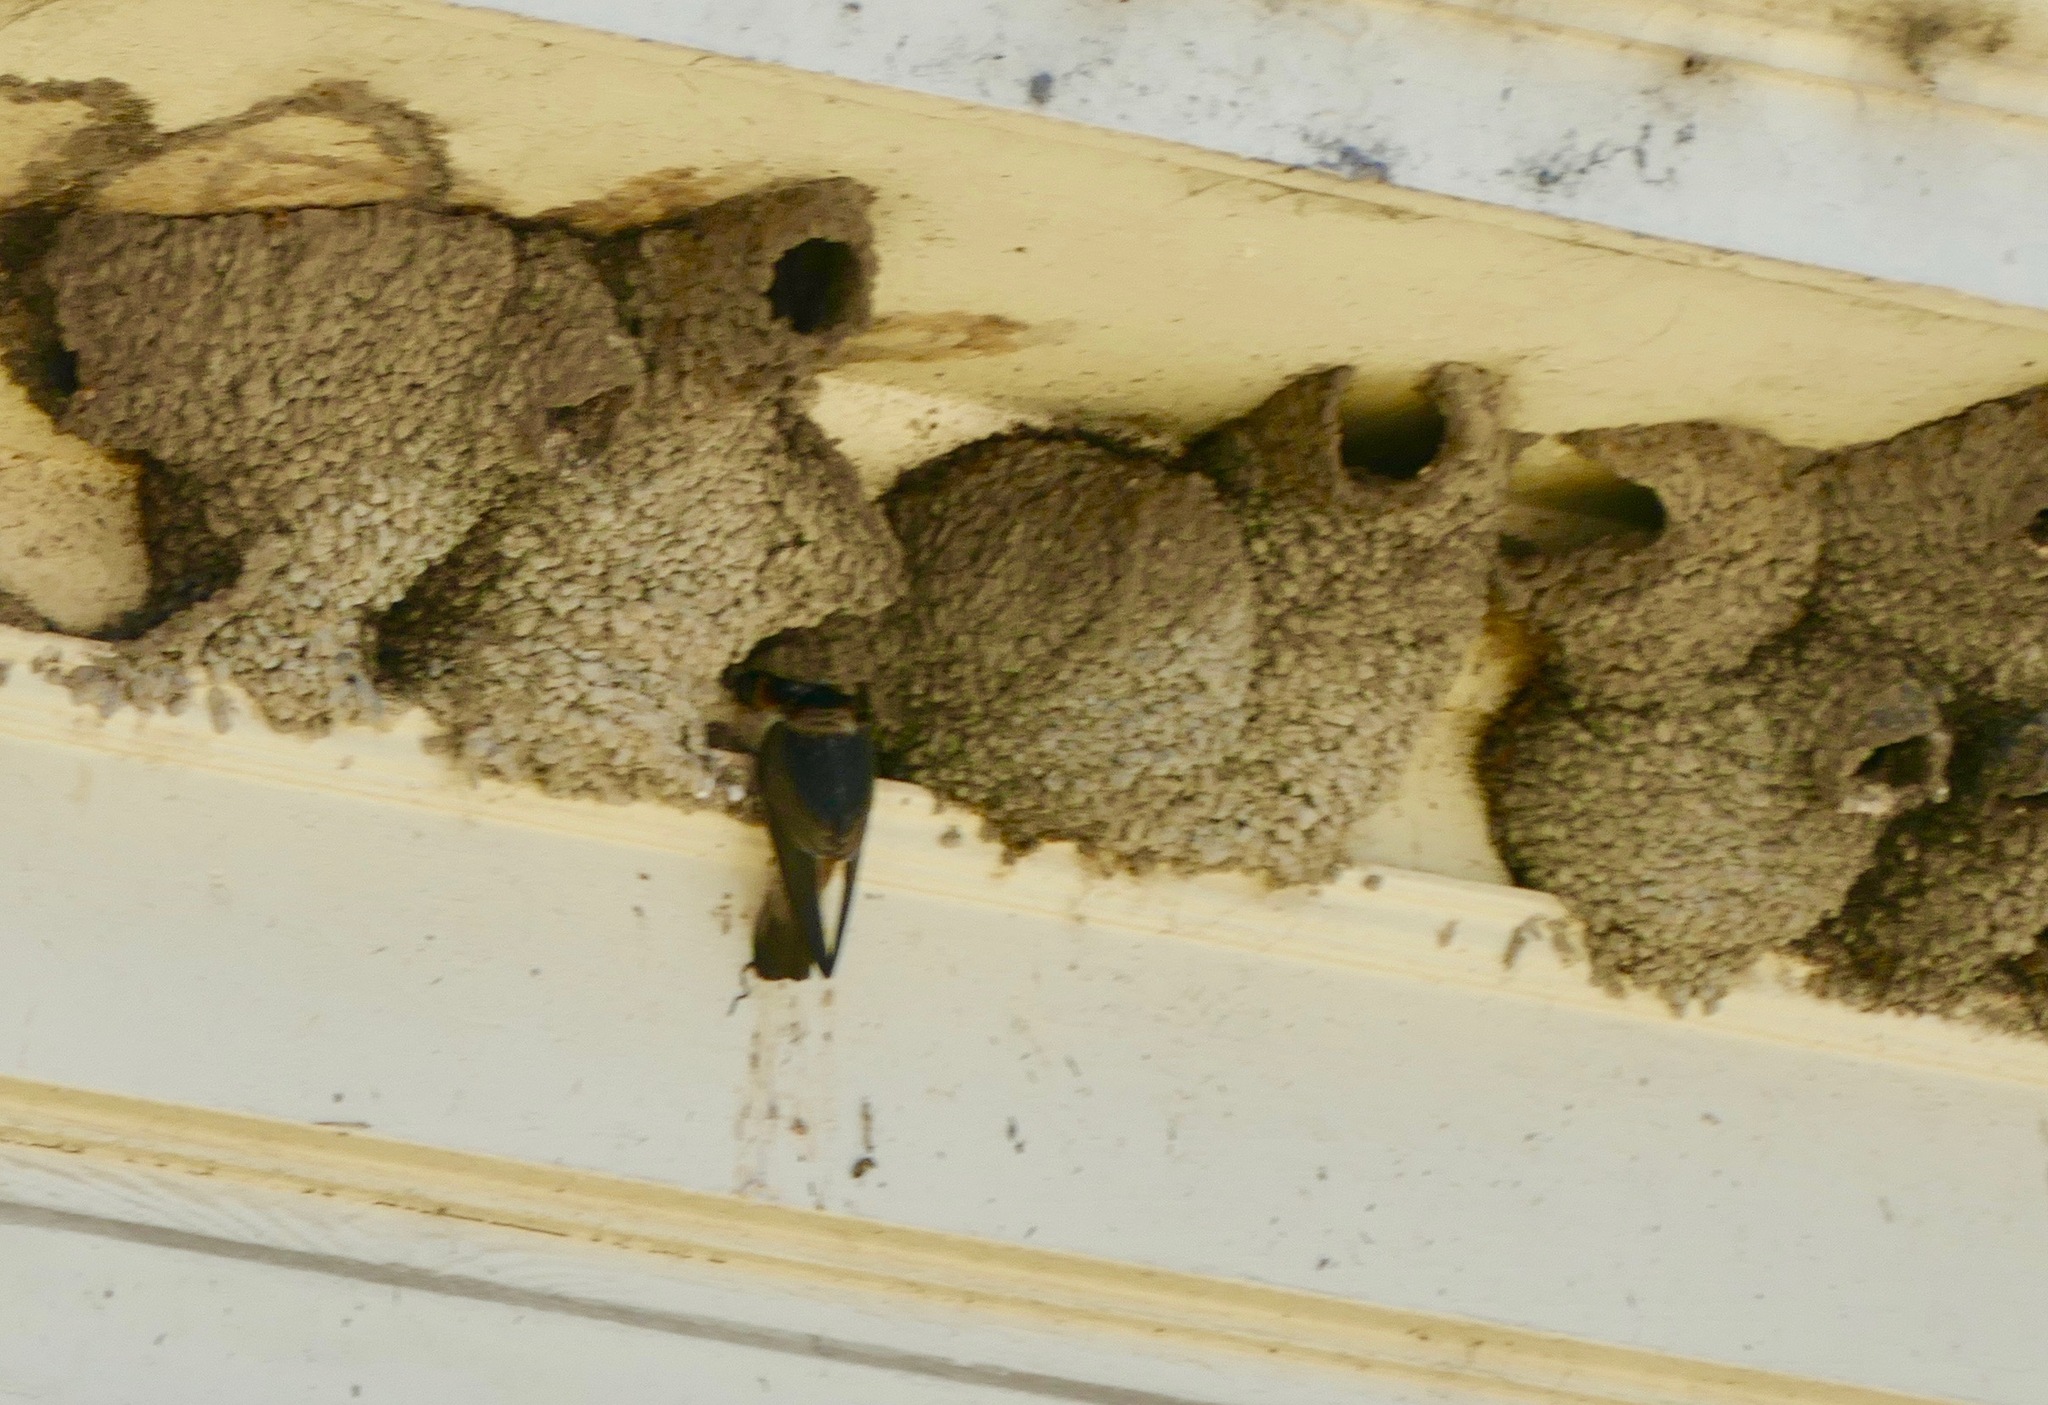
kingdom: Animalia
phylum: Chordata
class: Aves
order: Passeriformes
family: Hirundinidae
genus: Petrochelidon
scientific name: Petrochelidon pyrrhonota
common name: American cliff swallow
